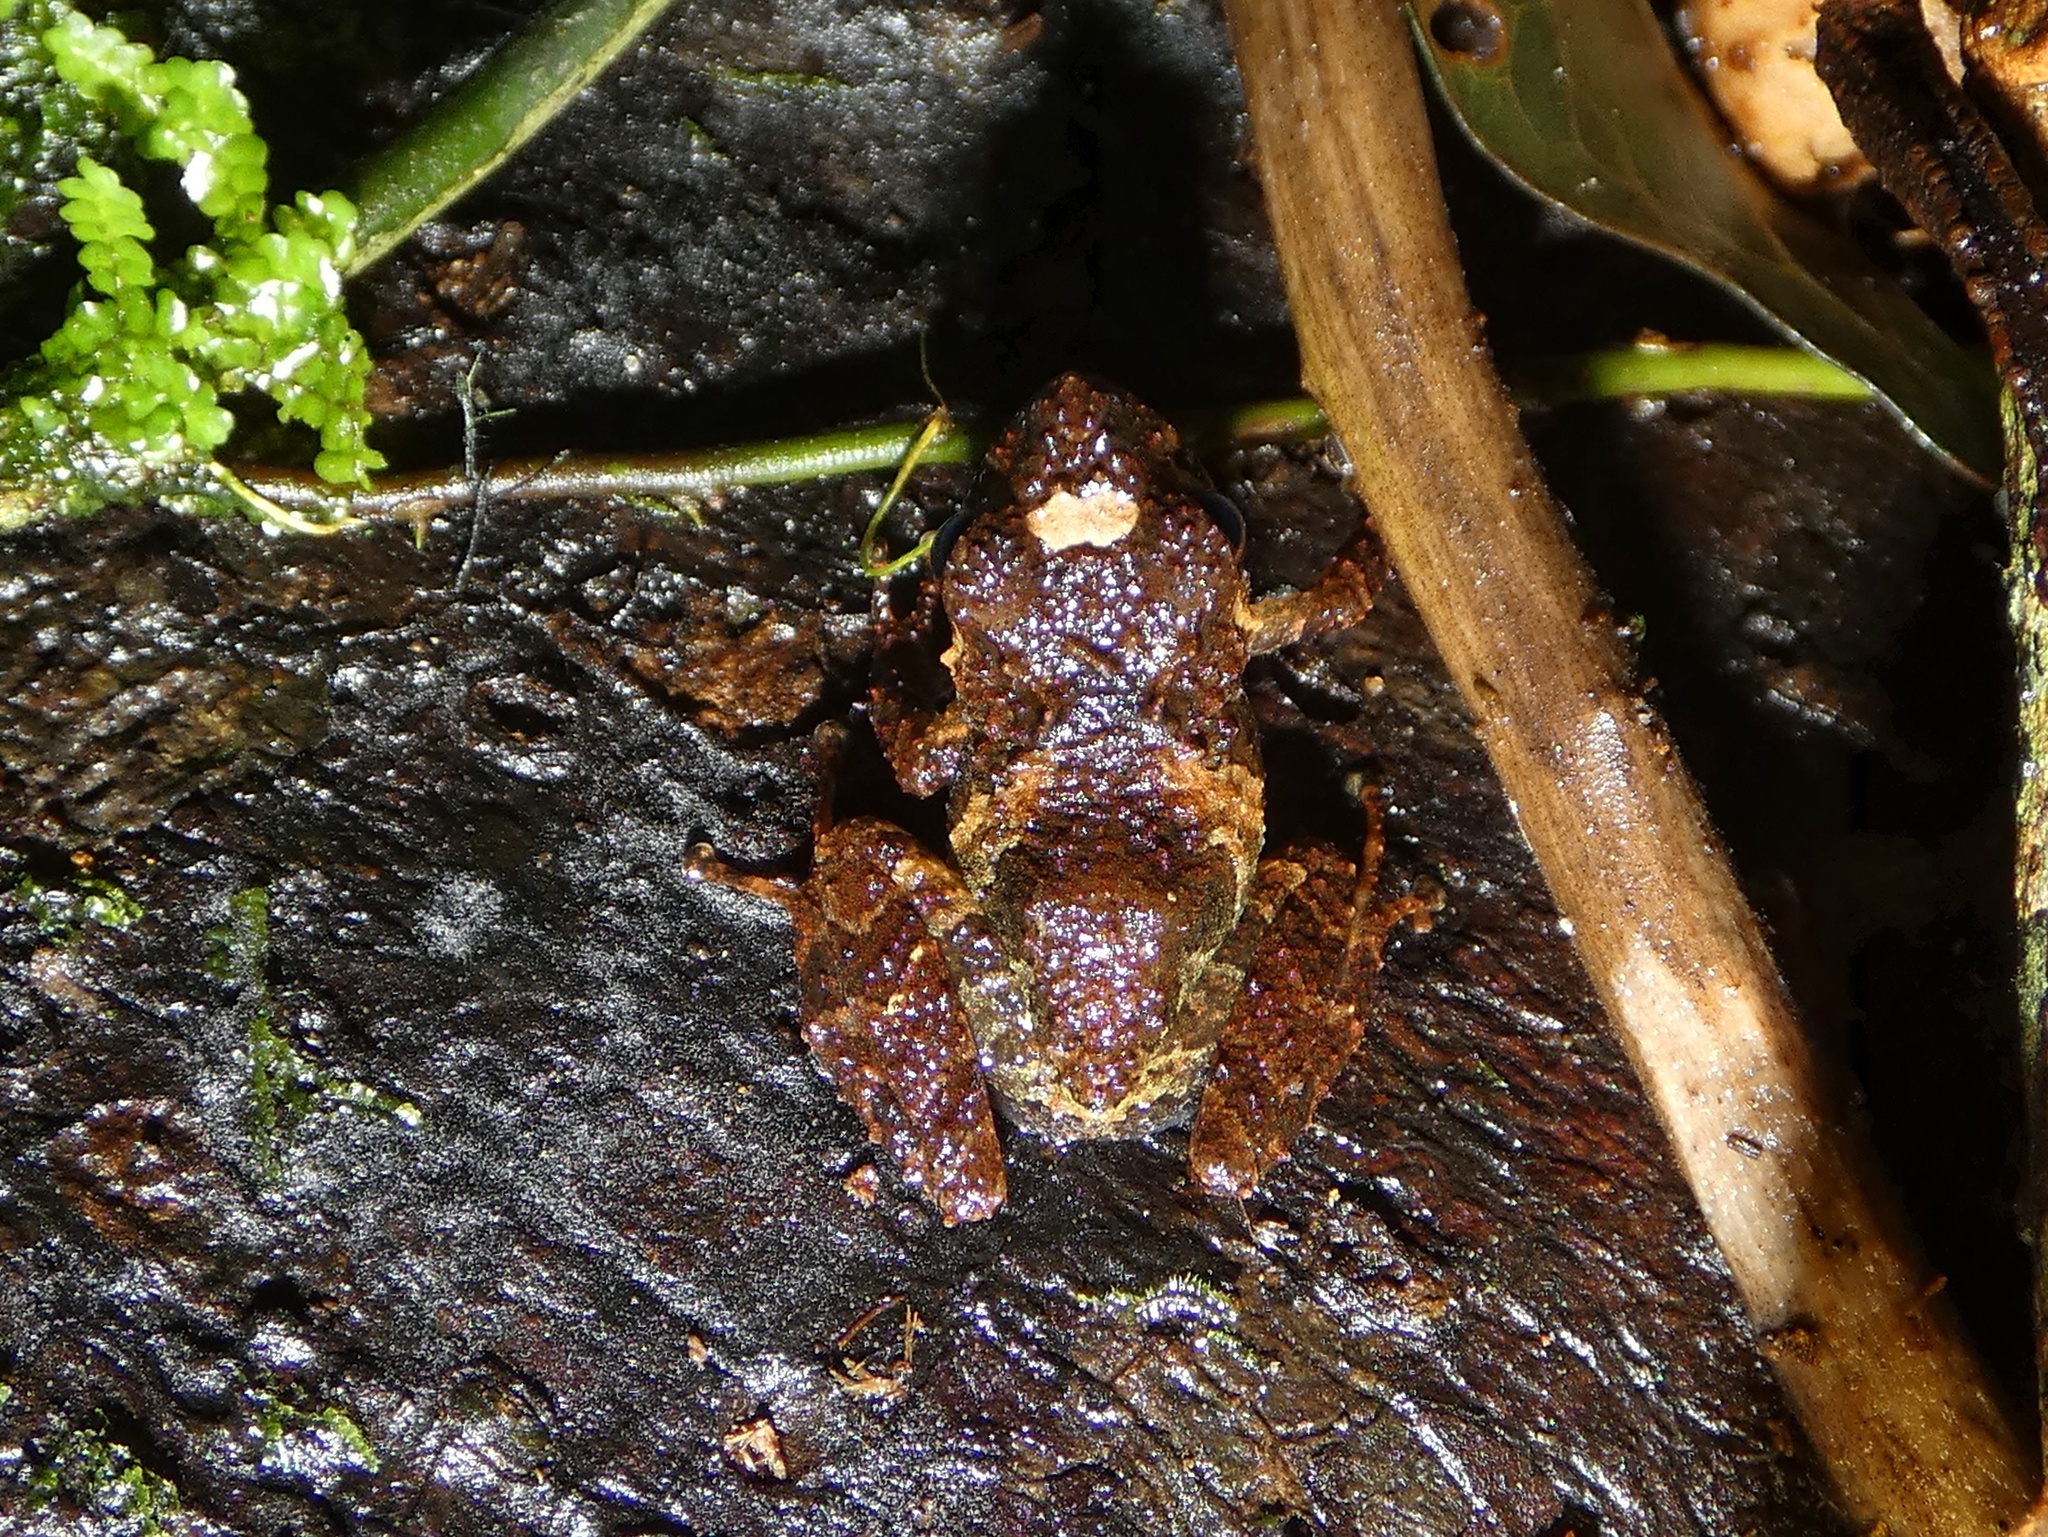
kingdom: Animalia
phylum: Chordata
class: Amphibia
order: Anura
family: Craugastoridae
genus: Pristimantis
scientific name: Pristimantis cruentus
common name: Chiriqui robber frog
